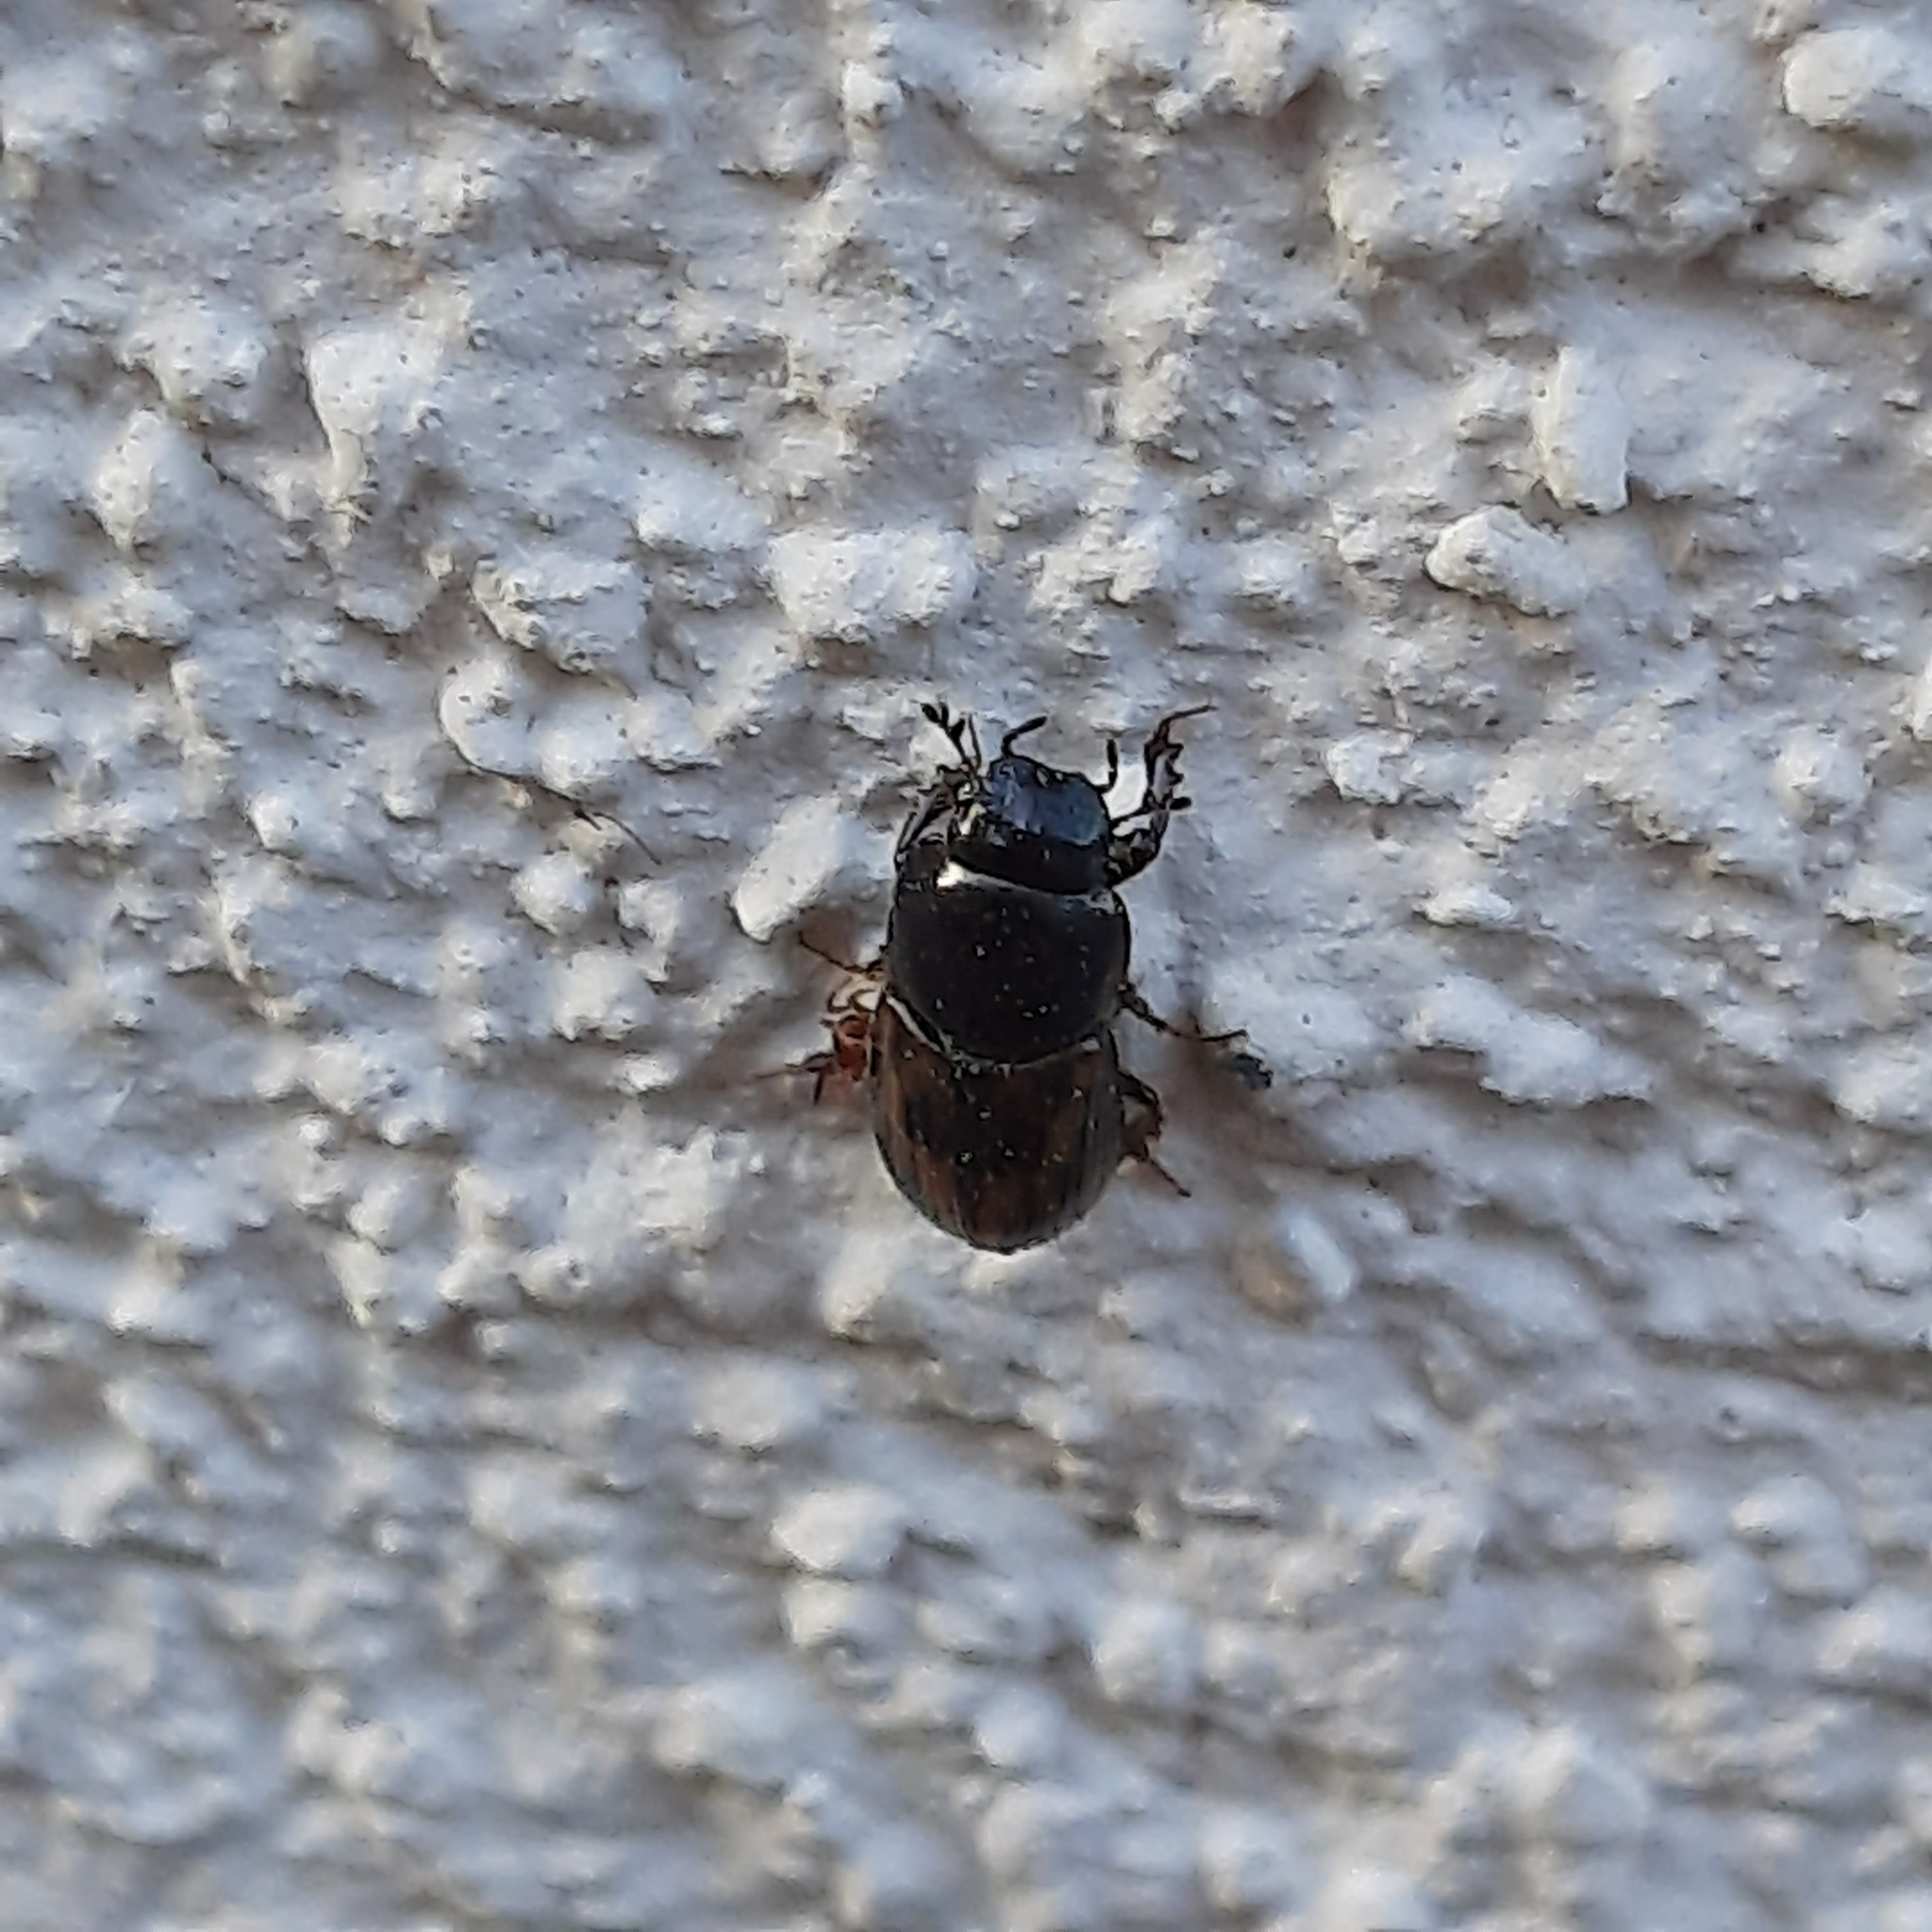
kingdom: Animalia
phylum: Arthropoda
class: Insecta
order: Coleoptera
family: Scarabaeidae
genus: Chilothorax
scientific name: Chilothorax distinctus
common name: Maculated dung beetle
